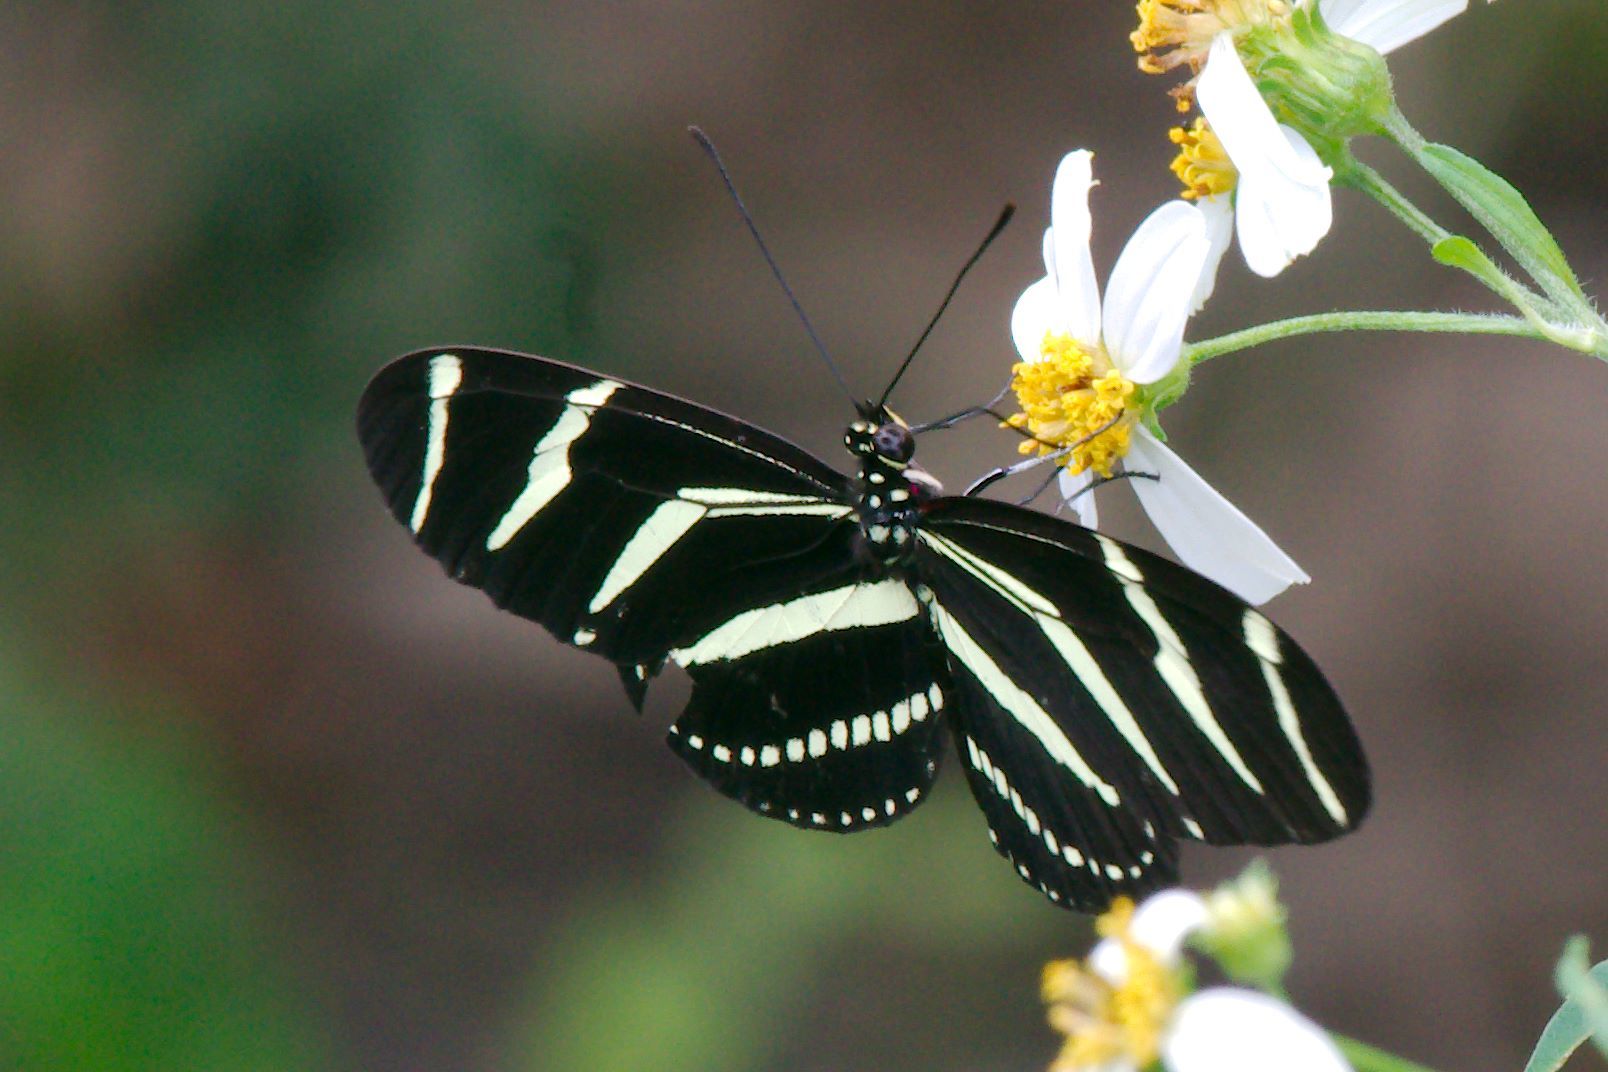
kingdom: Animalia
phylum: Arthropoda
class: Insecta
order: Lepidoptera
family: Nymphalidae
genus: Heliconius
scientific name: Heliconius charithonia
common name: Zebra long wing
